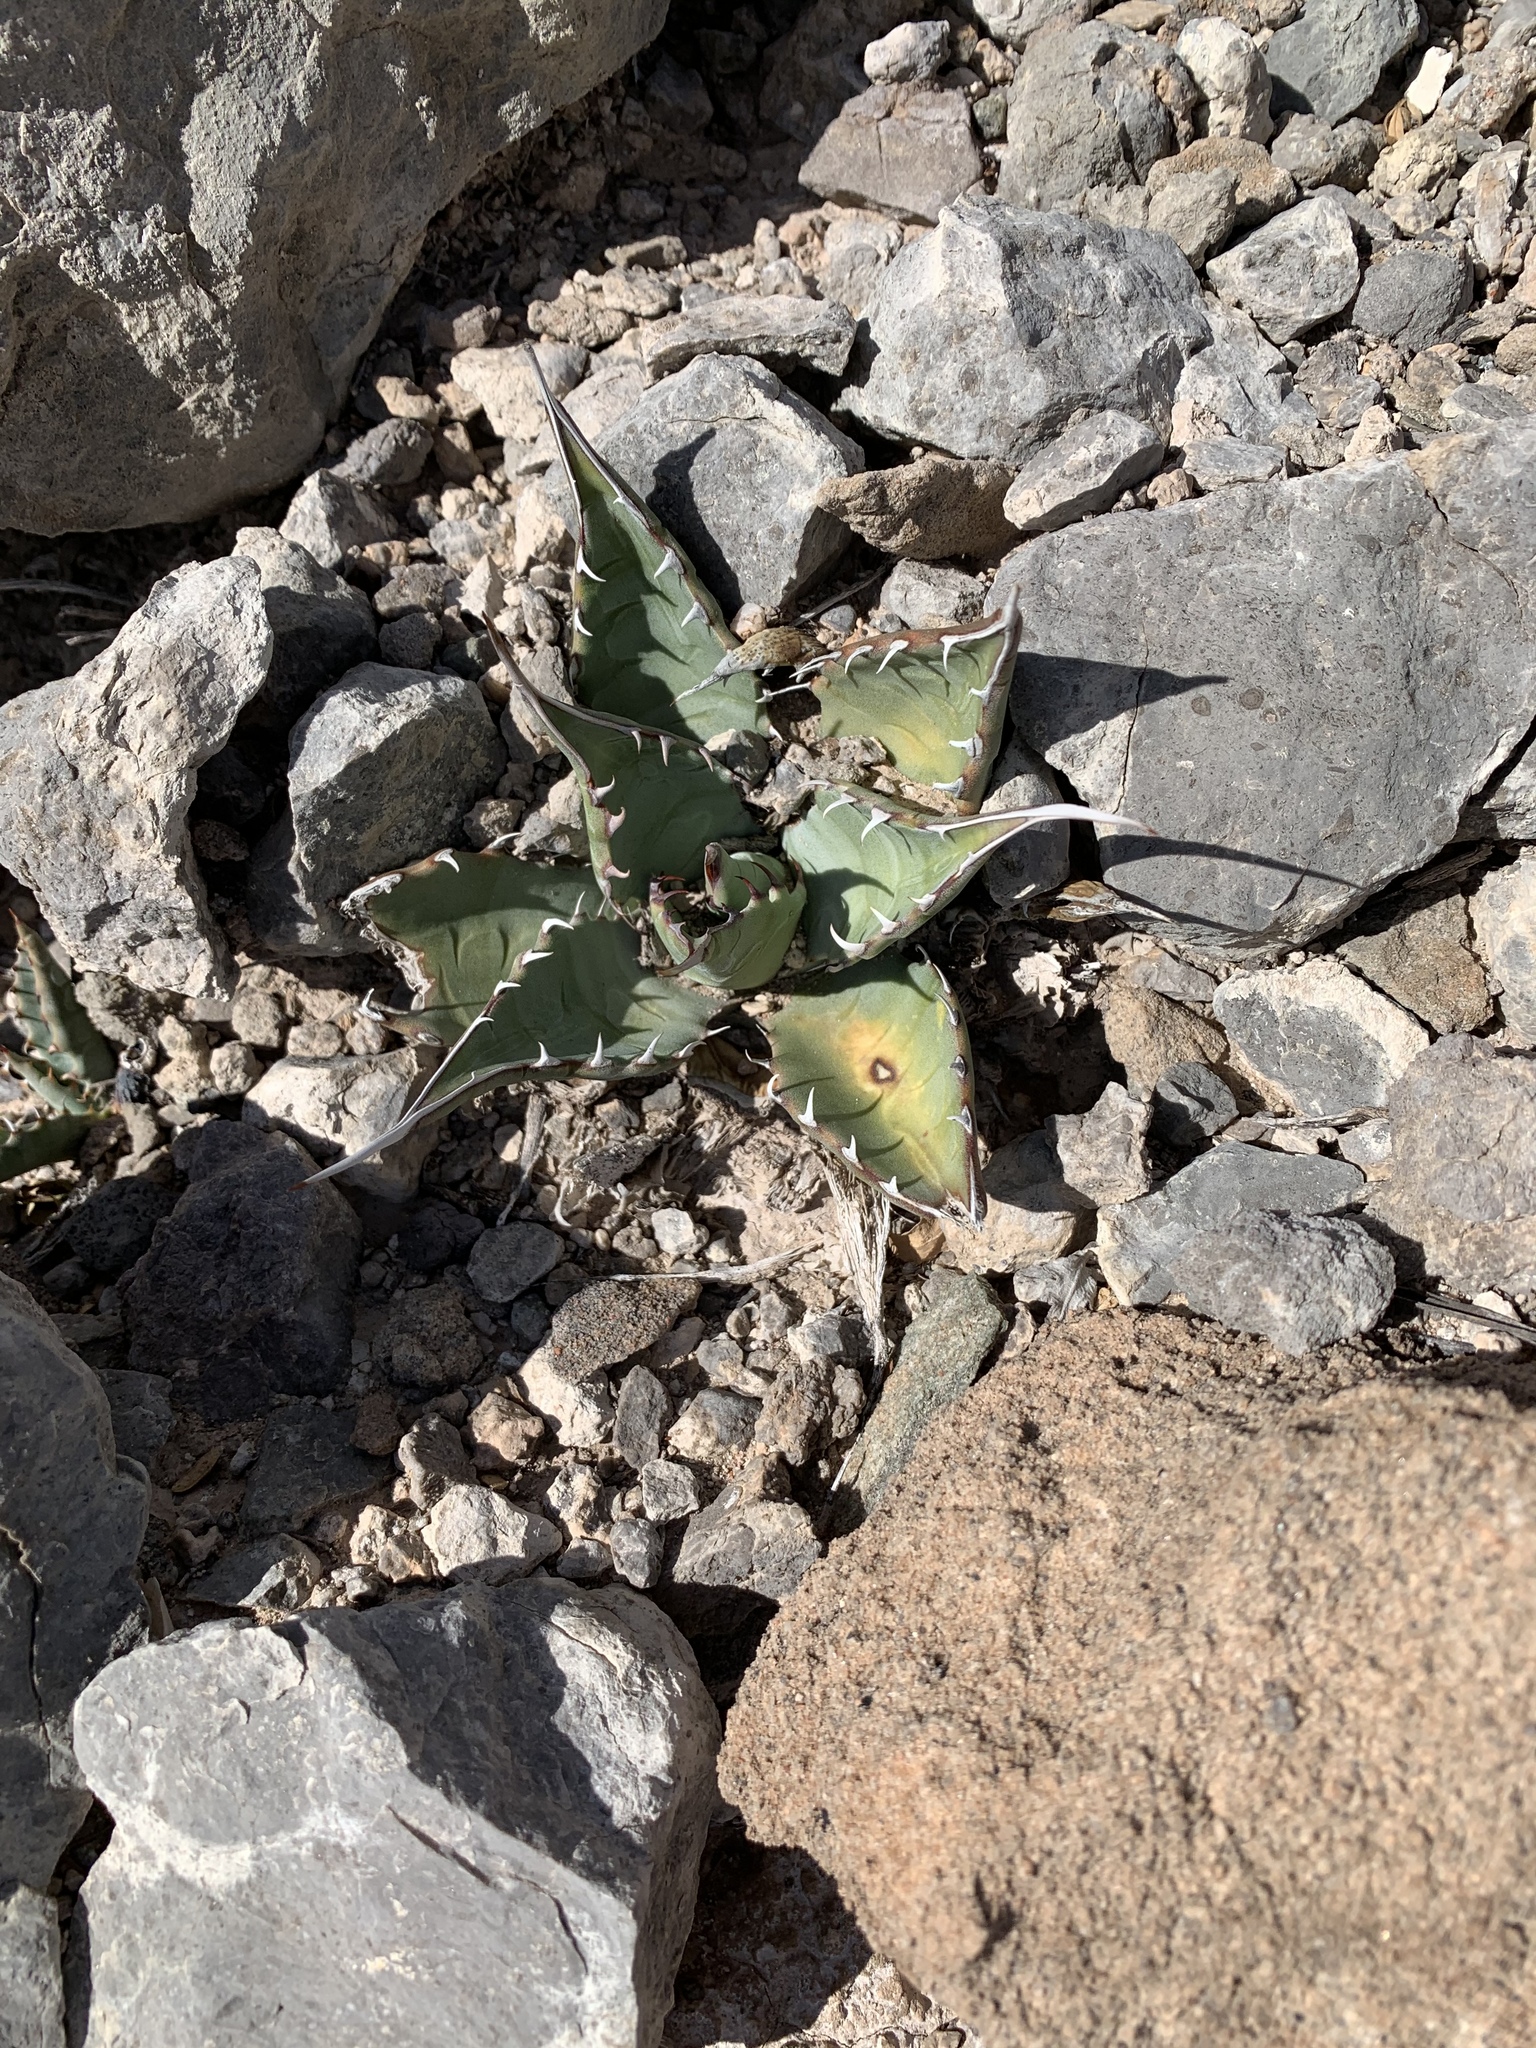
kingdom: Plantae
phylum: Tracheophyta
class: Liliopsida
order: Asparagales
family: Asparagaceae
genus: Agave
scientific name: Agave parryi
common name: Parry's agave
